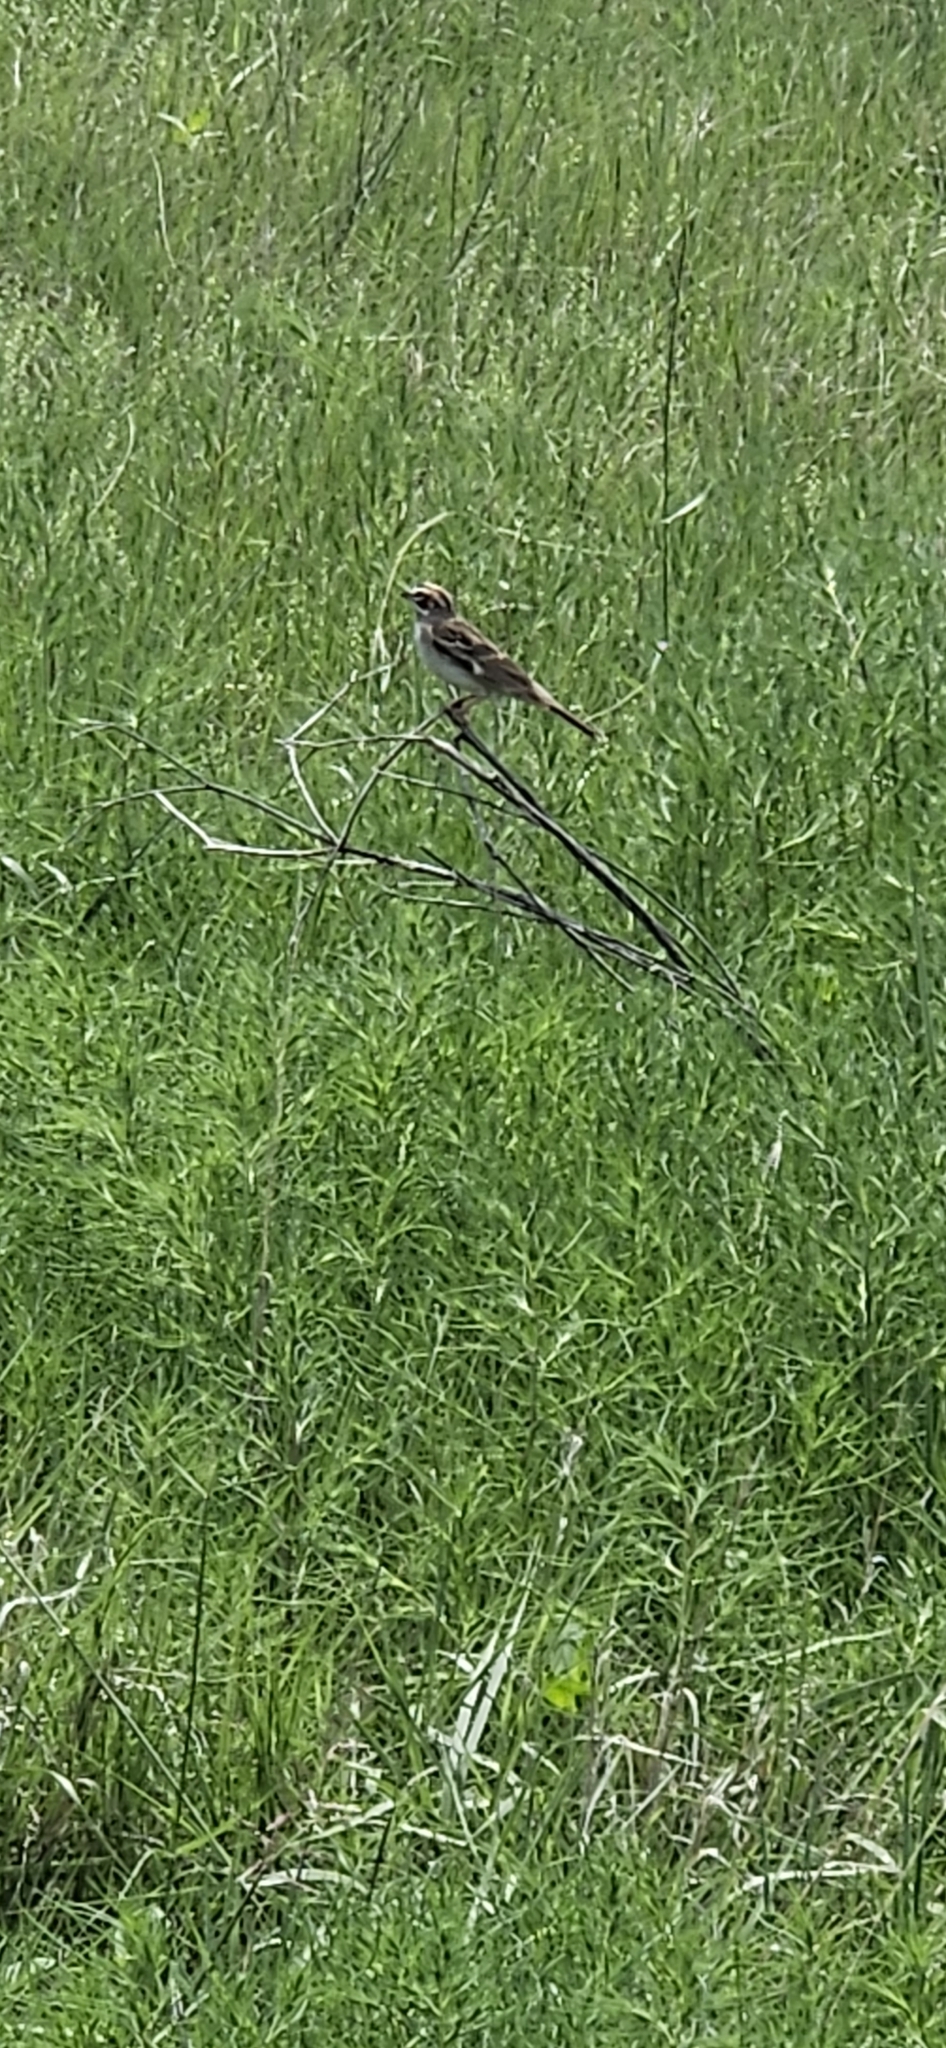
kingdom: Animalia
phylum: Chordata
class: Aves
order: Passeriformes
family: Passerellidae
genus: Chondestes
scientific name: Chondestes grammacus
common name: Lark sparrow
